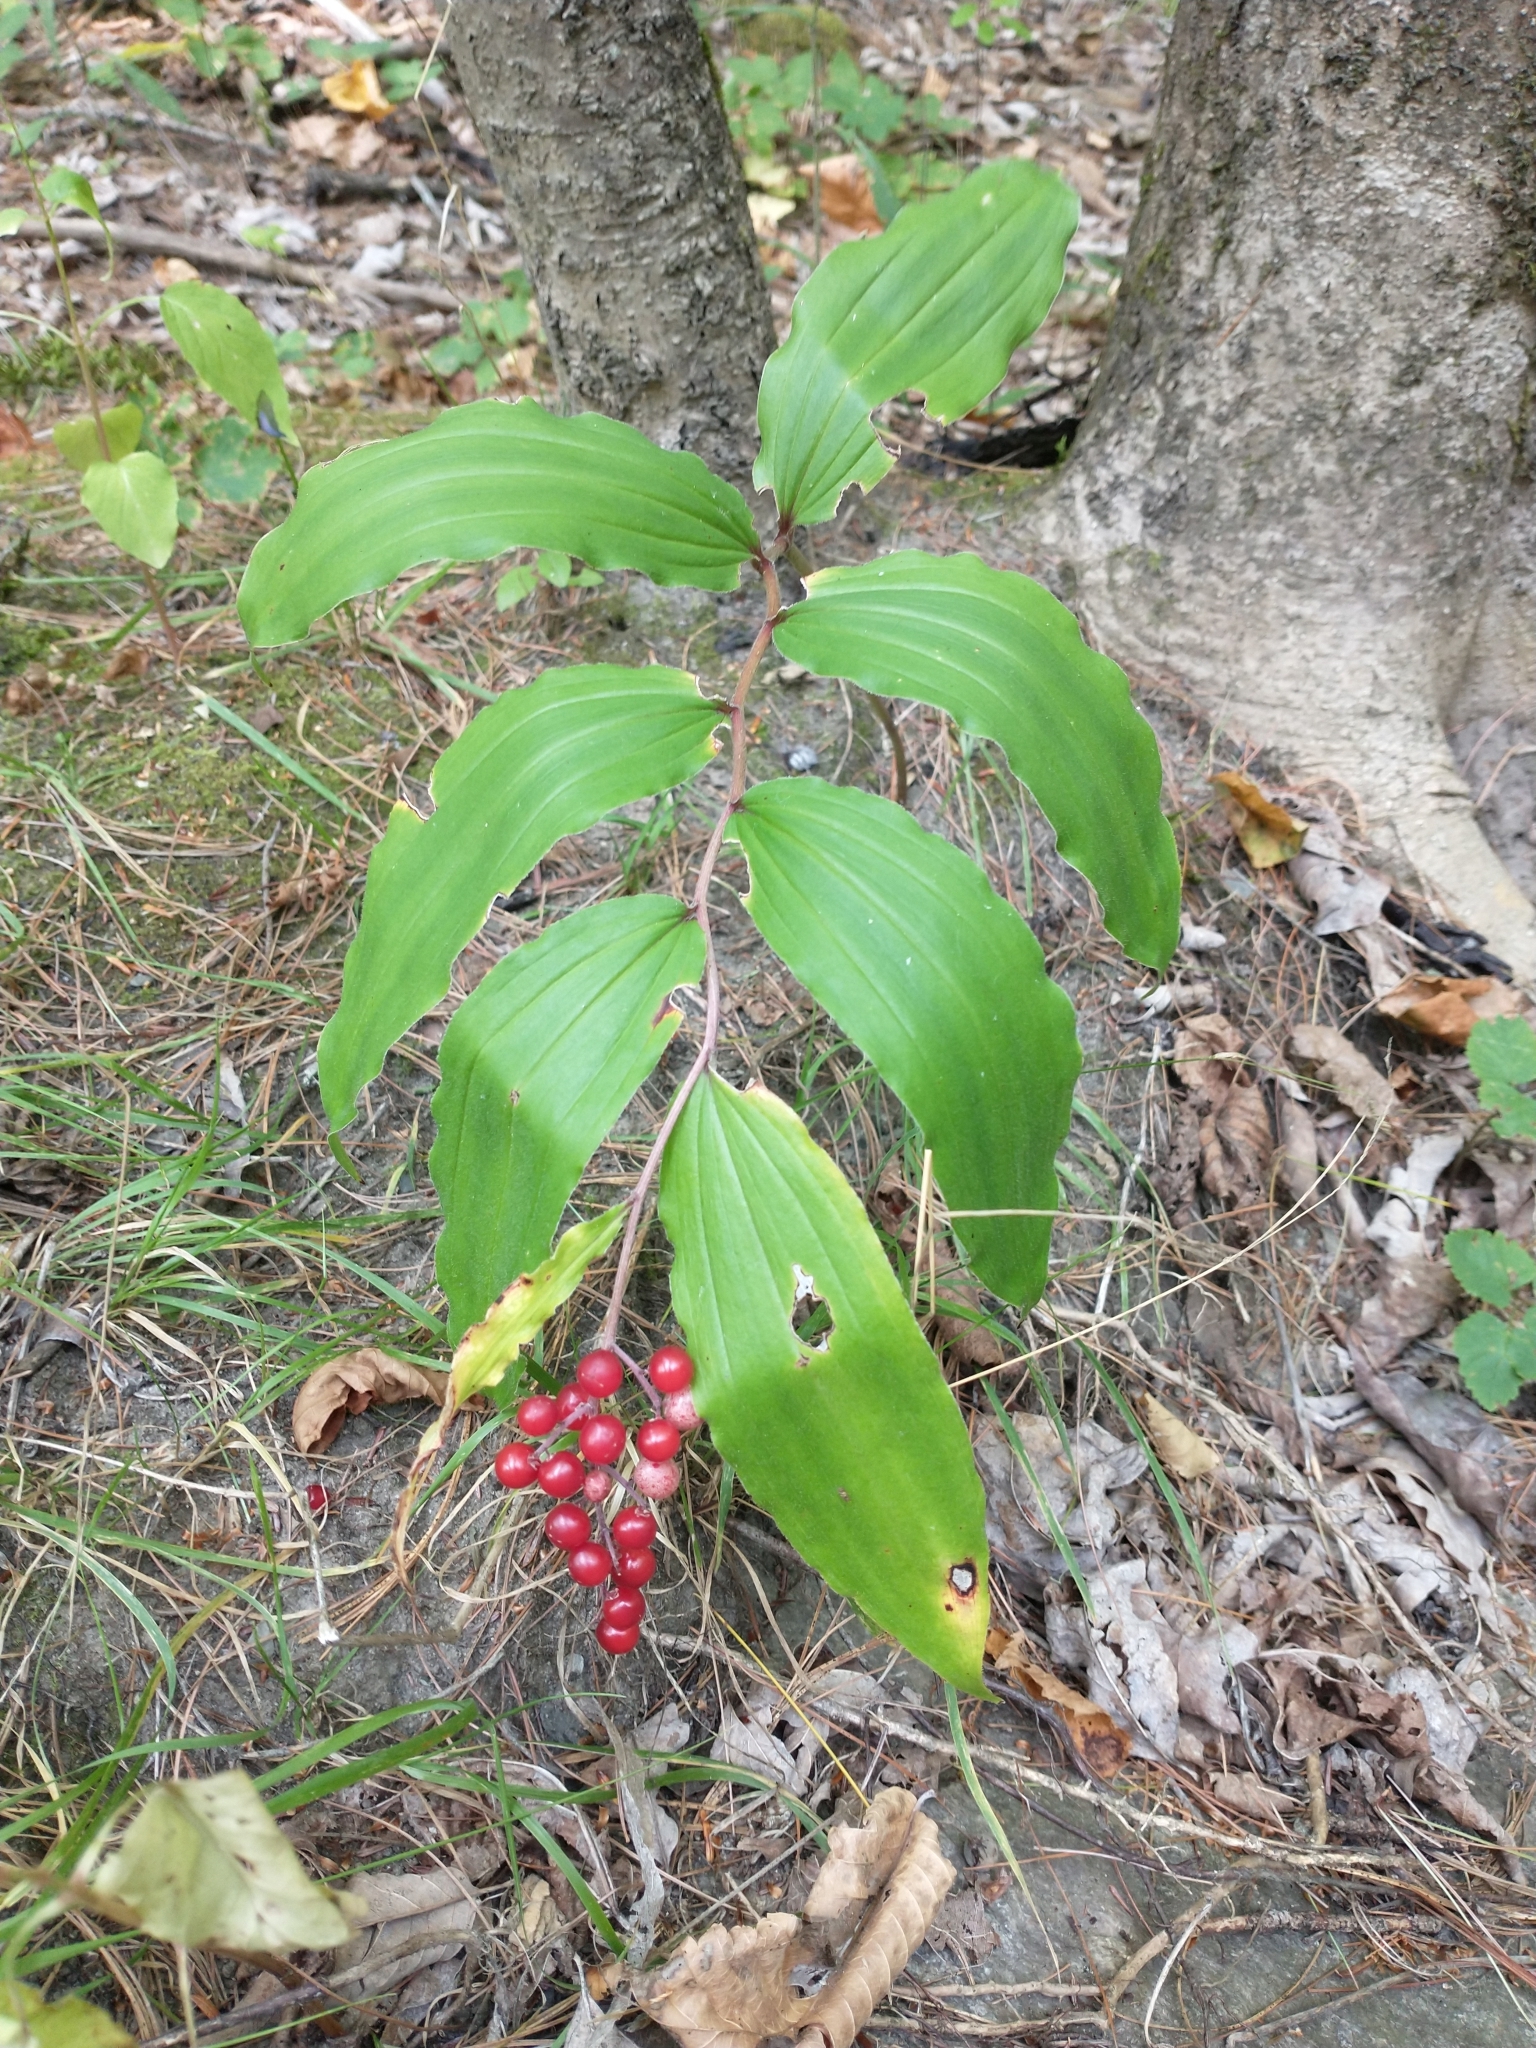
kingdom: Plantae
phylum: Tracheophyta
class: Liliopsida
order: Asparagales
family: Asparagaceae
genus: Maianthemum
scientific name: Maianthemum racemosum
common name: False spikenard
